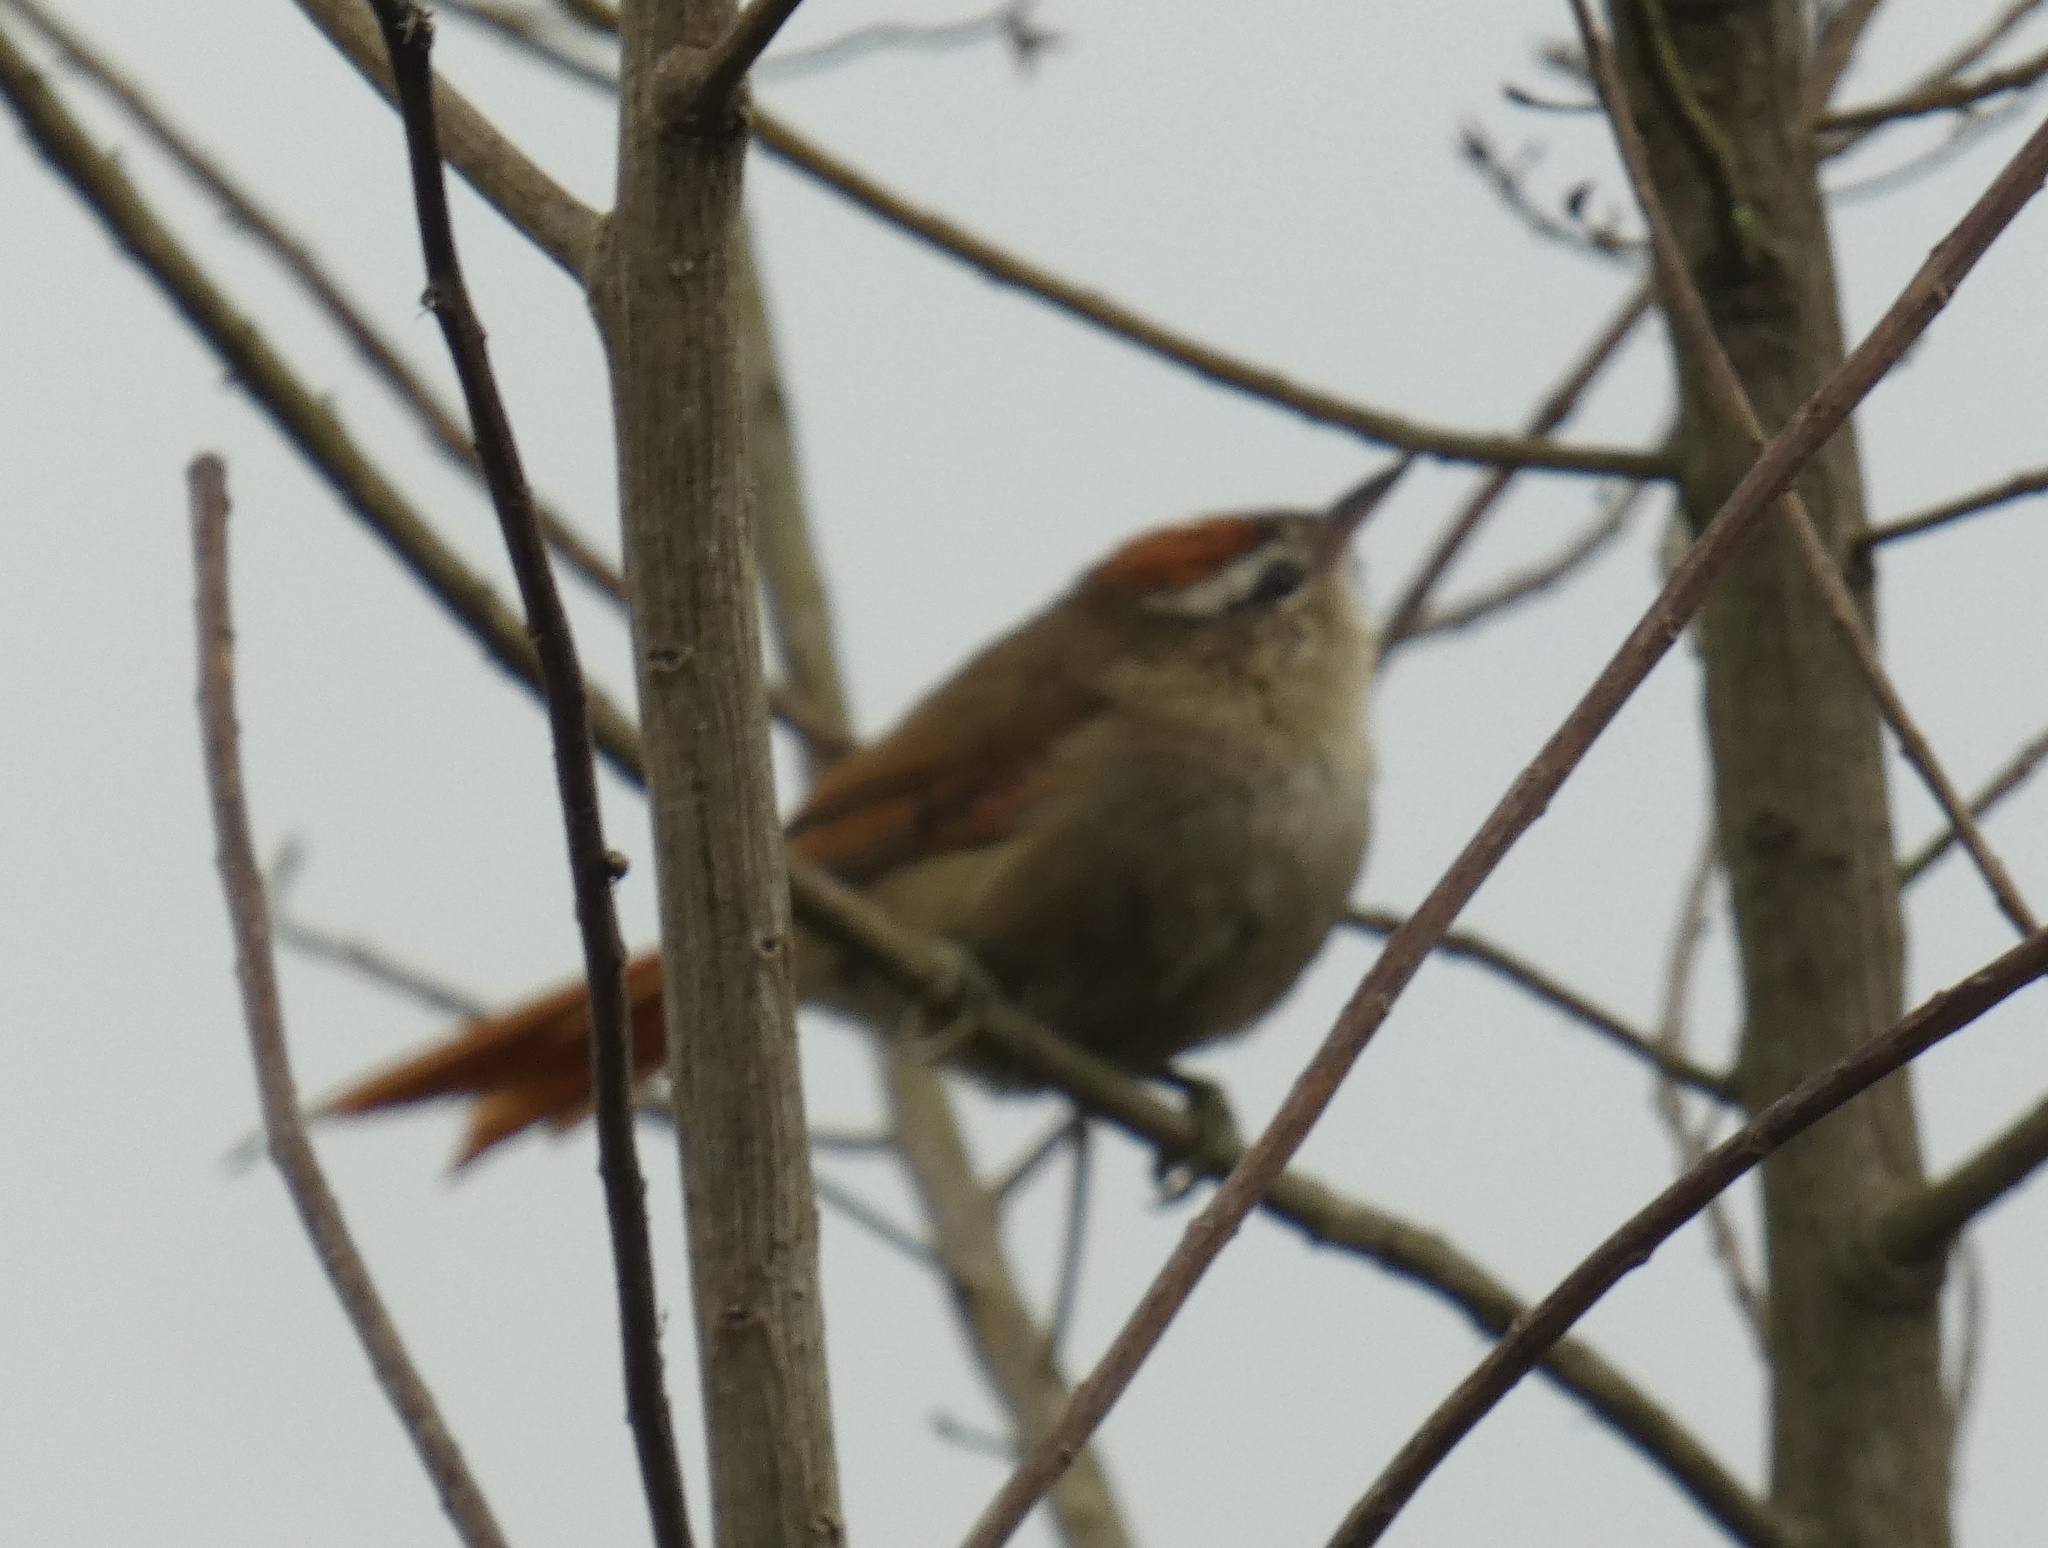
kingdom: Animalia
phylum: Chordata
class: Aves
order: Passeriformes
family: Furnariidae
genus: Cranioleuca
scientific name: Cranioleuca pallida
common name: Pallid spinetail
